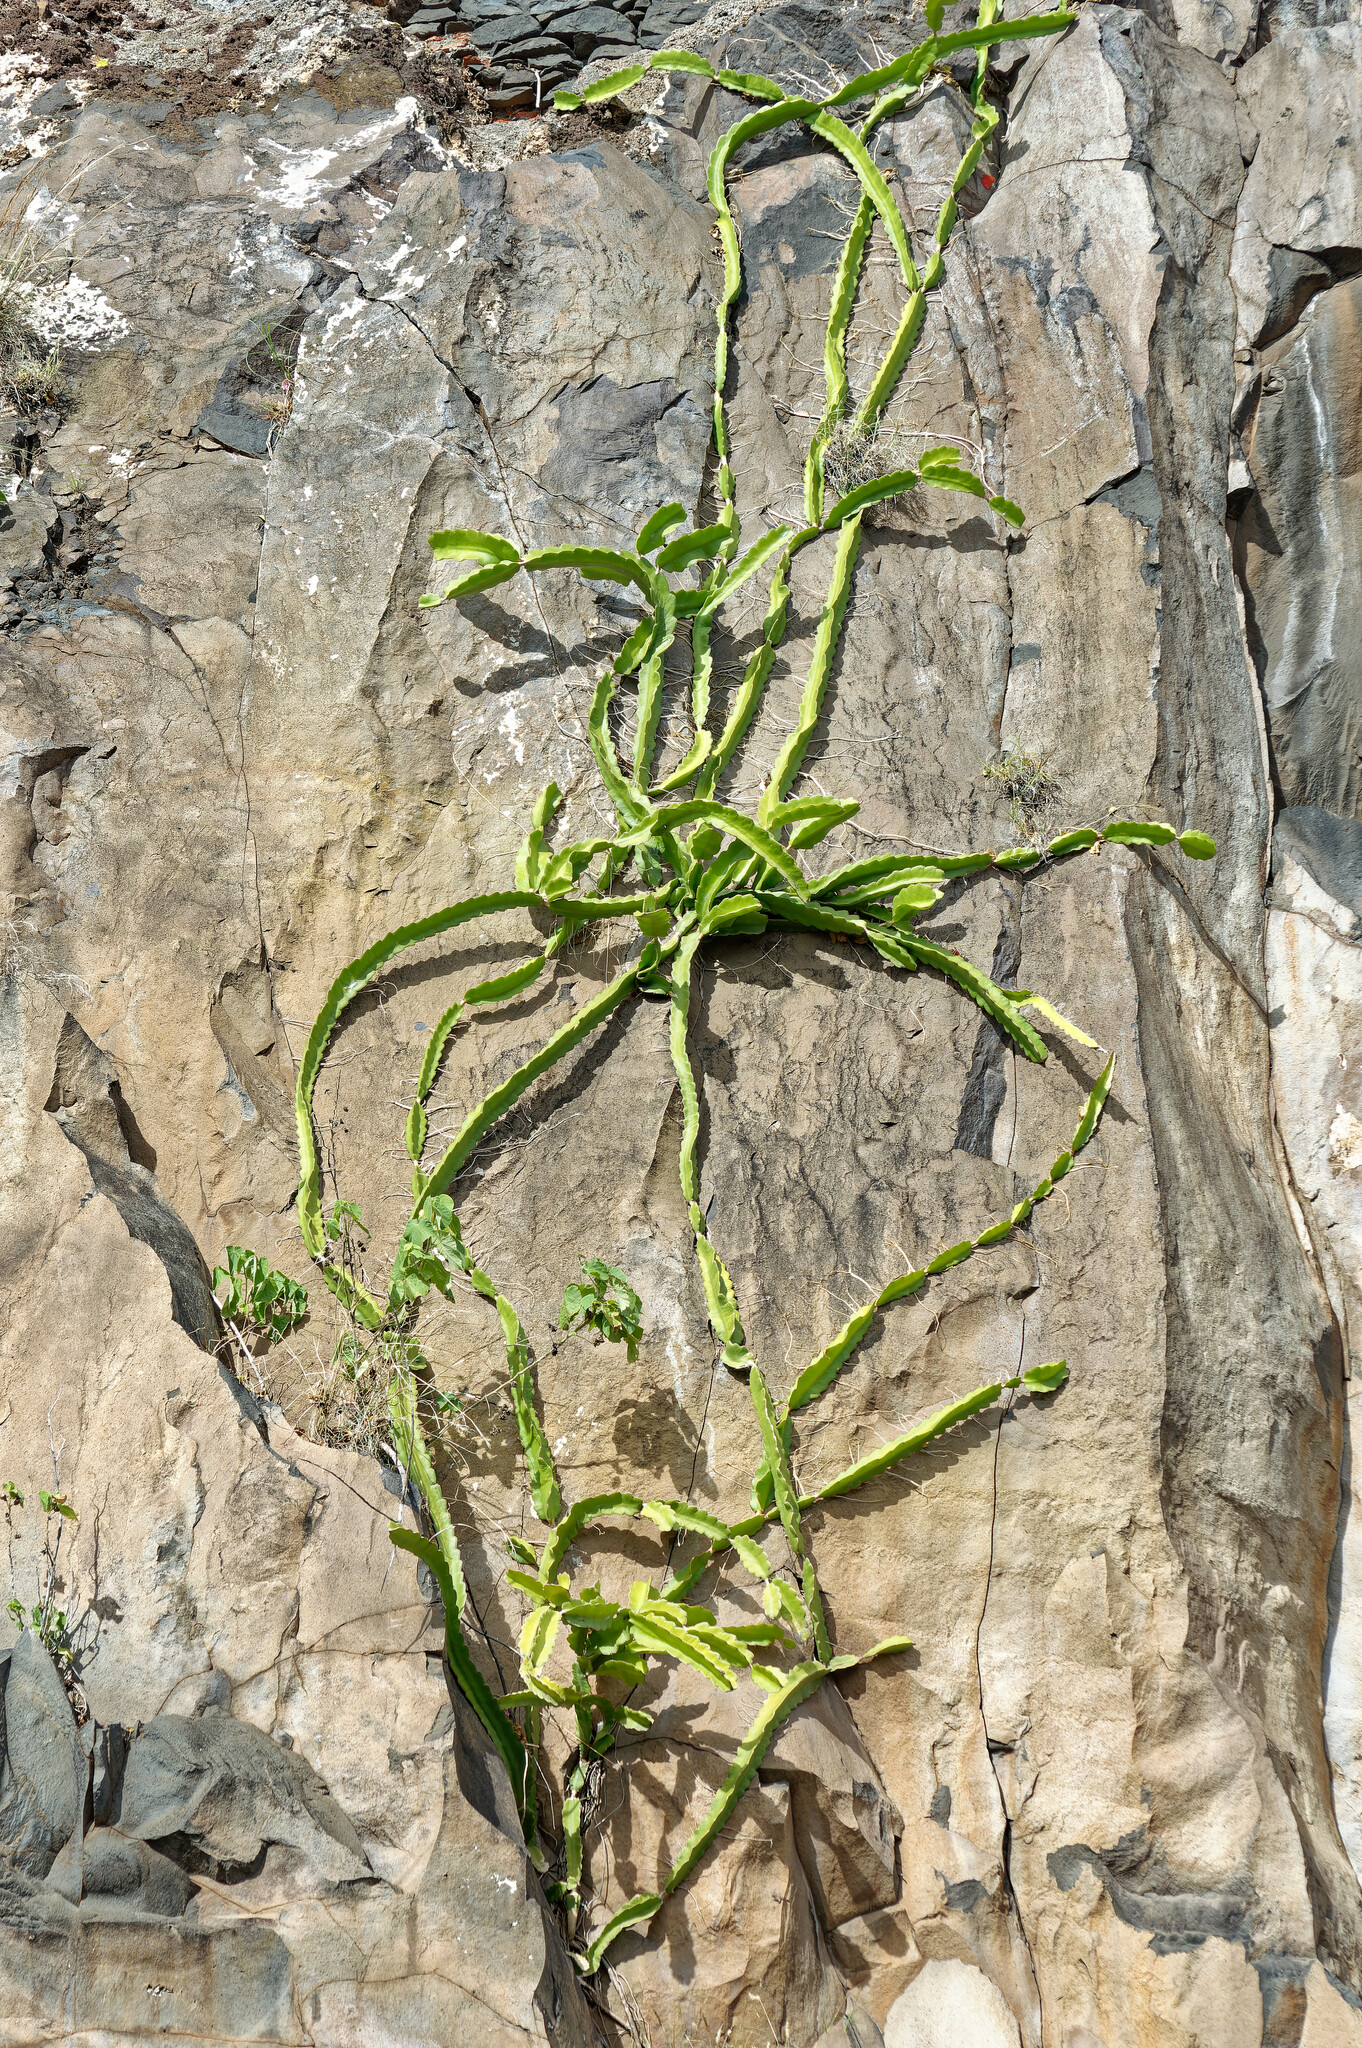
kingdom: Plantae
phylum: Tracheophyta
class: Magnoliopsida
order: Caryophyllales
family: Cactaceae
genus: Selenicereus
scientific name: Selenicereus undatus
